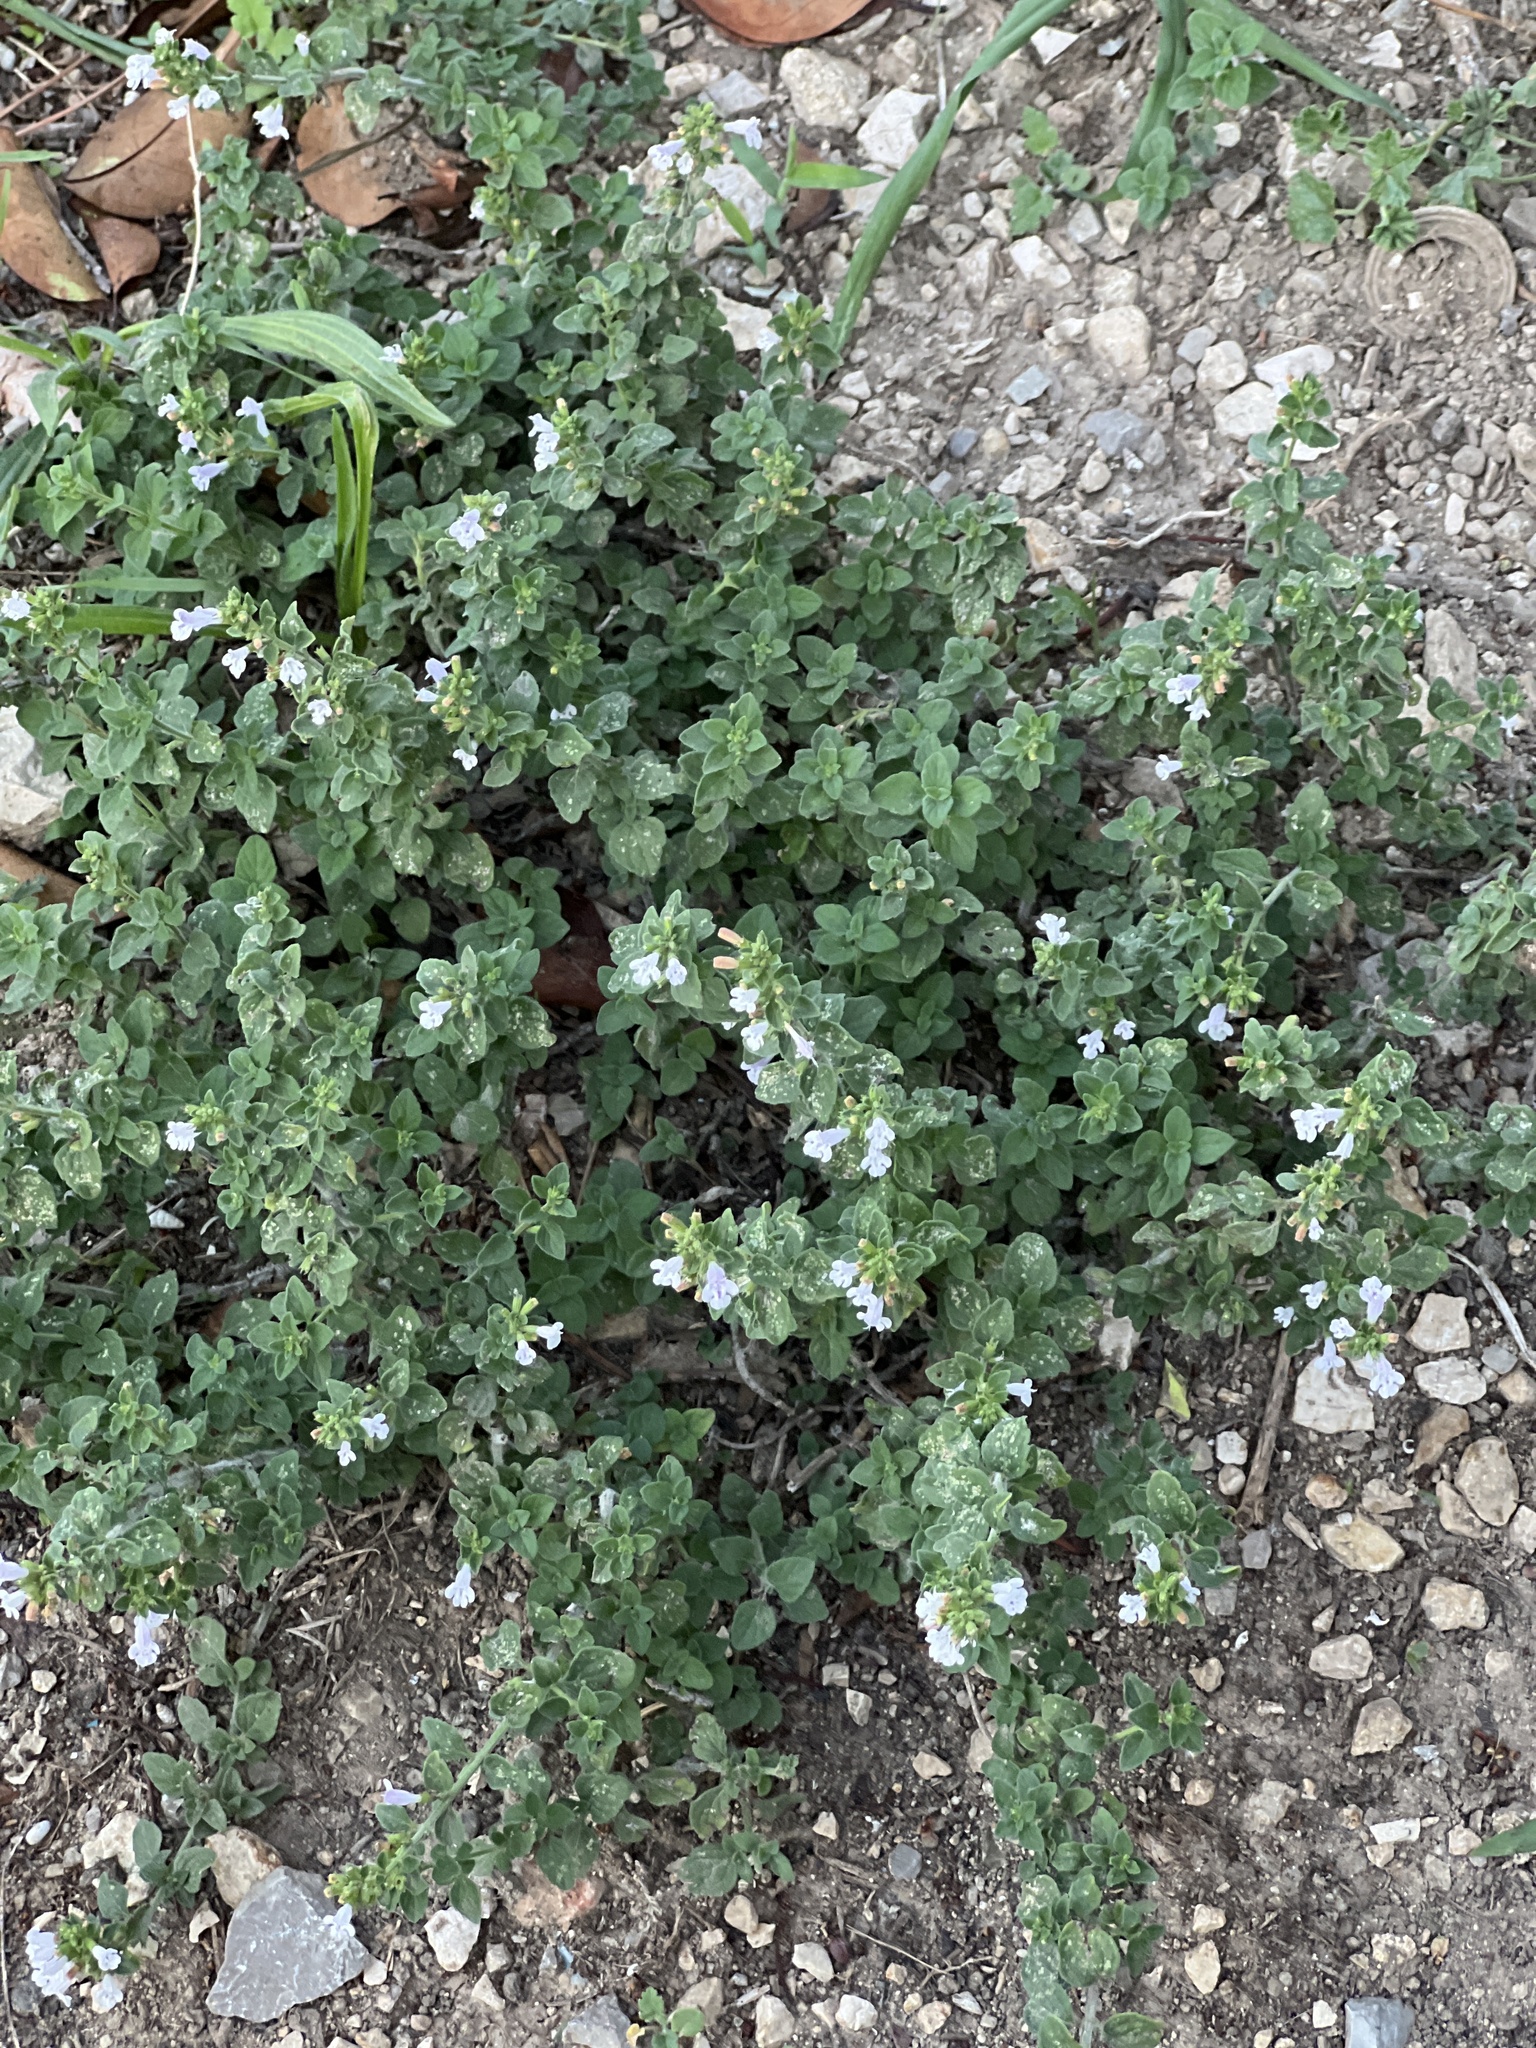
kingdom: Plantae
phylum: Tracheophyta
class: Magnoliopsida
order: Lamiales
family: Lamiaceae
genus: Clinopodium
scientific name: Clinopodium nepeta
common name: Lesser calamint
